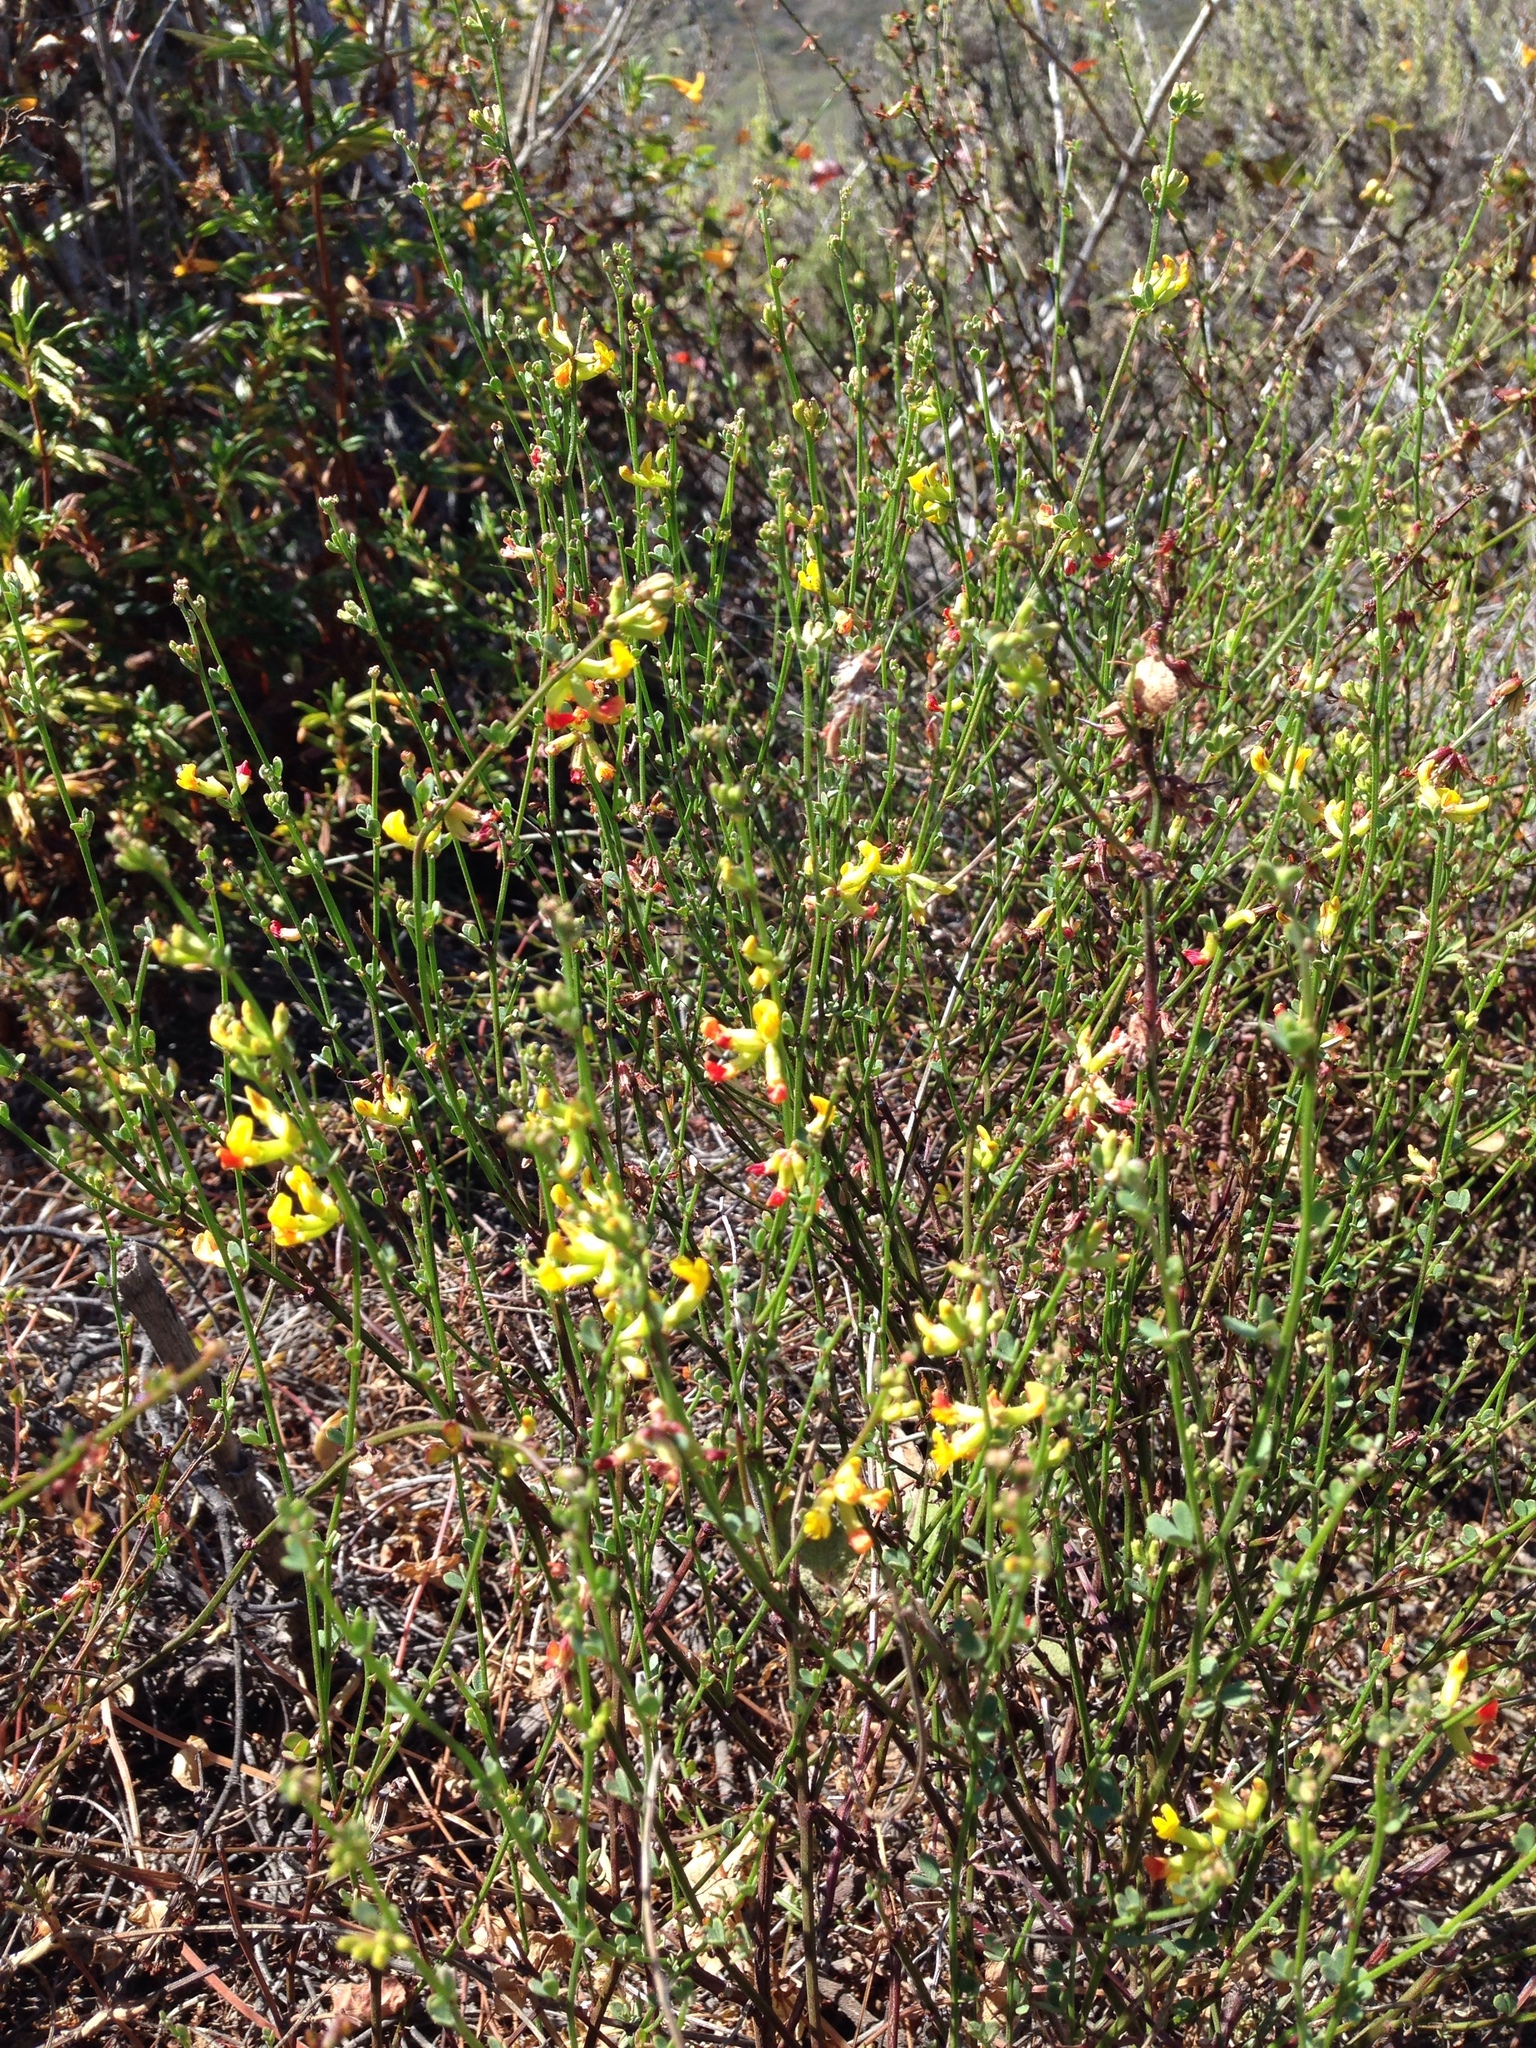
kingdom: Plantae
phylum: Tracheophyta
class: Magnoliopsida
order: Fabales
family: Fabaceae
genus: Acmispon
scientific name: Acmispon glaber
